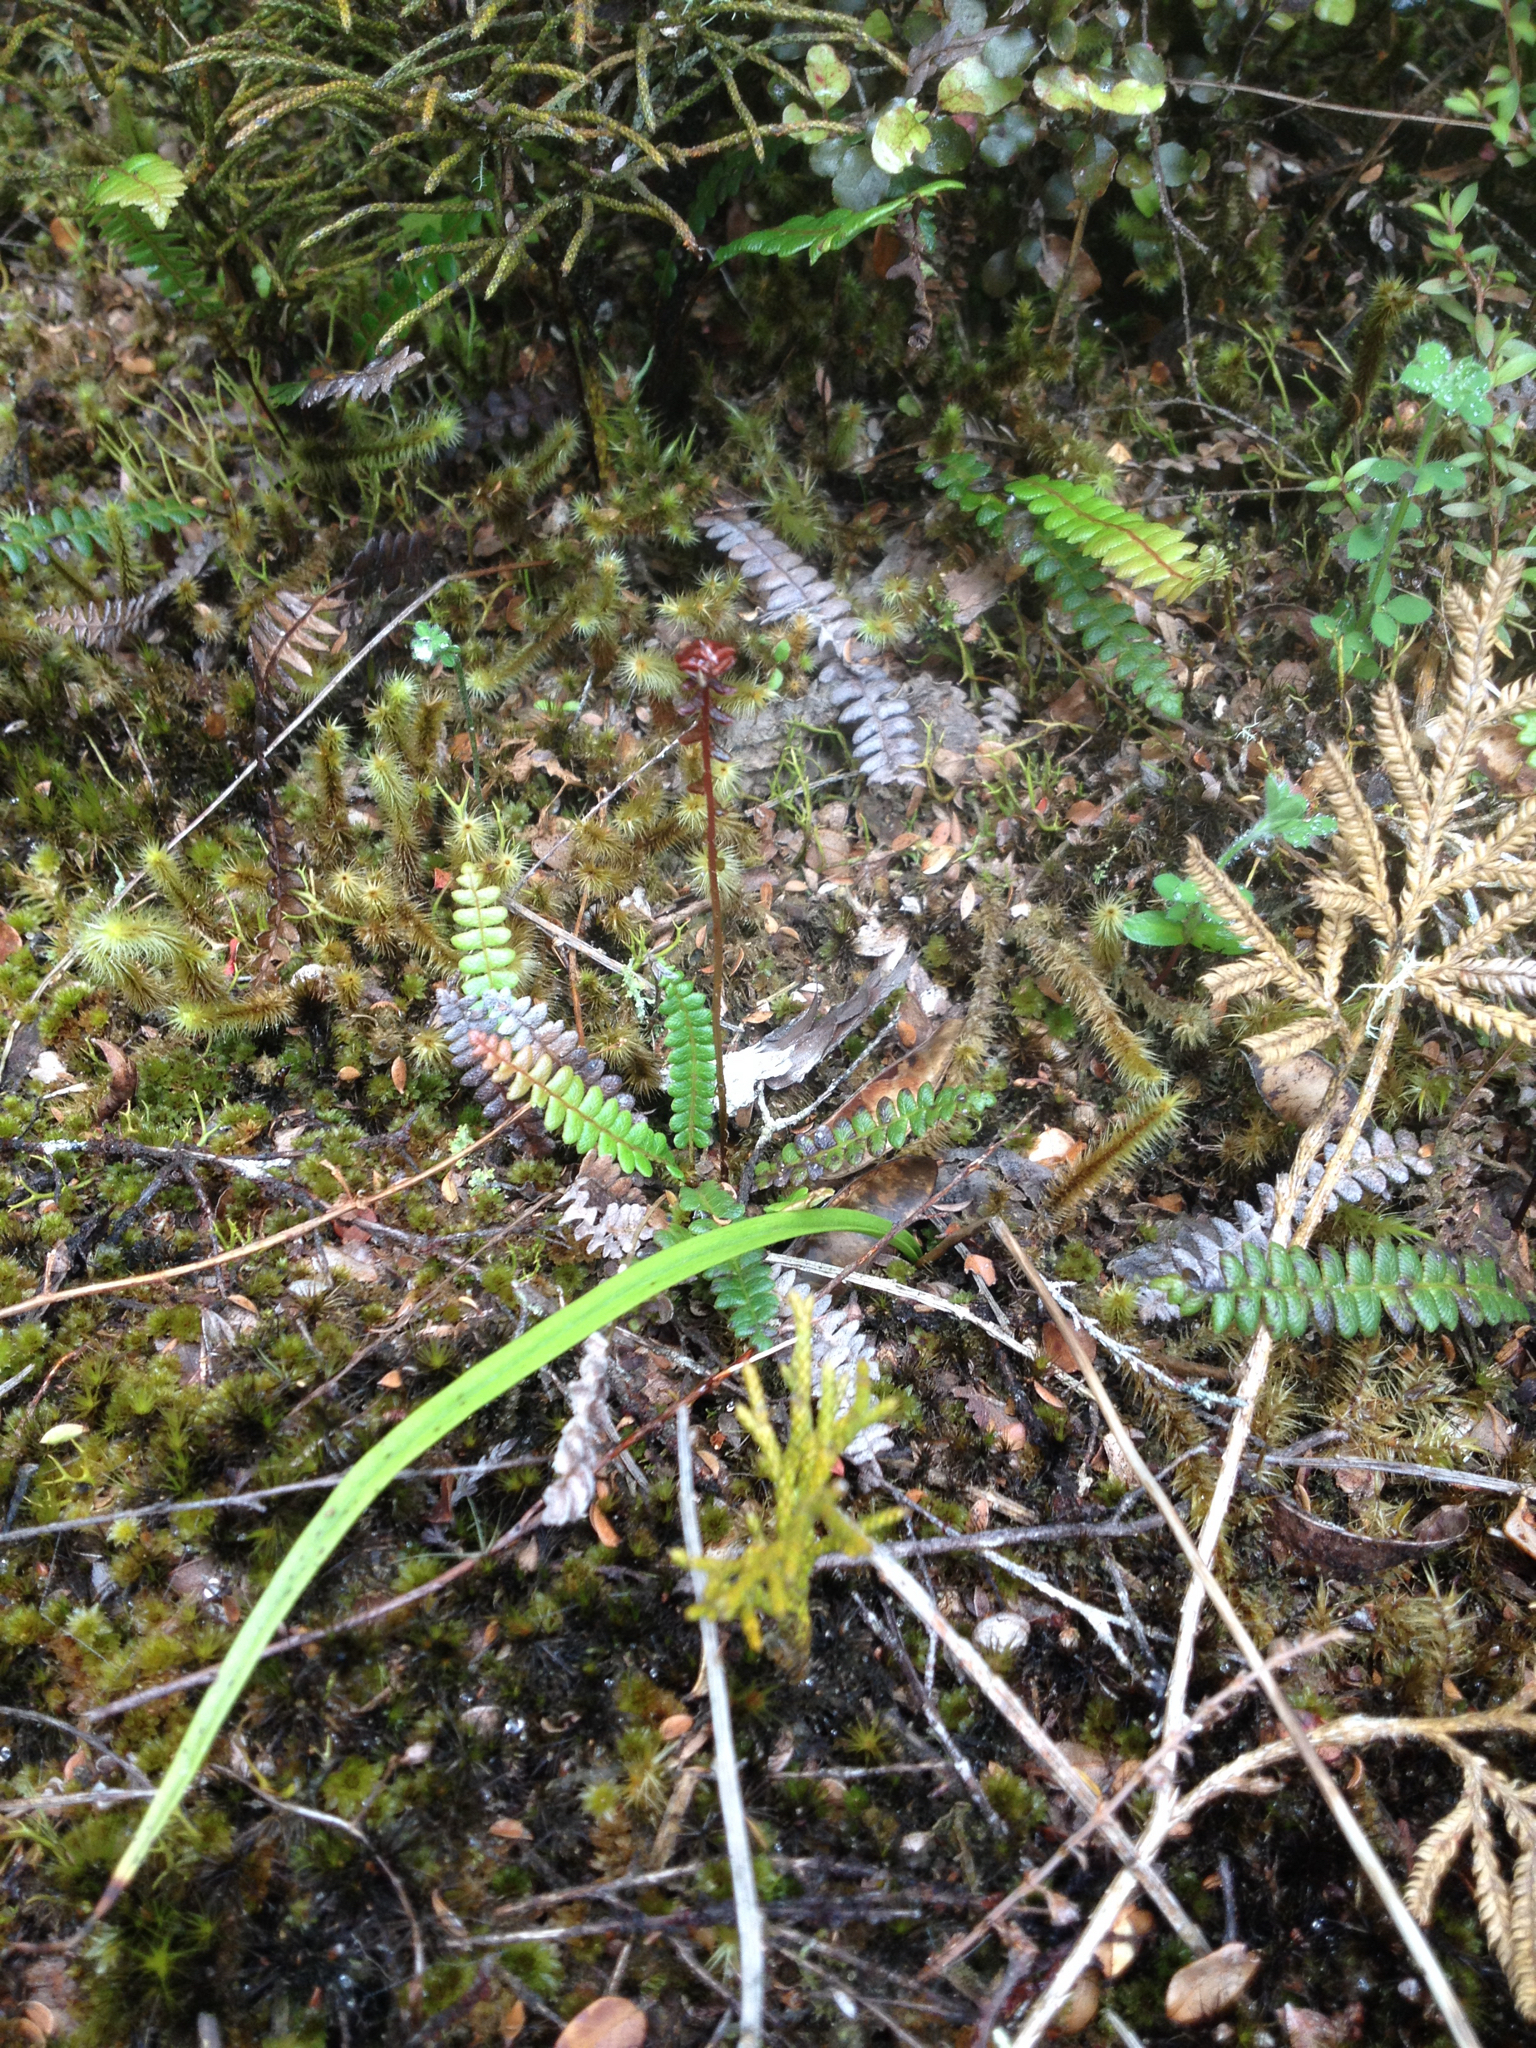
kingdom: Plantae
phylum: Tracheophyta
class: Polypodiopsida
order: Polypodiales
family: Blechnaceae
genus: Austroblechnum
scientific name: Austroblechnum penna-marina
